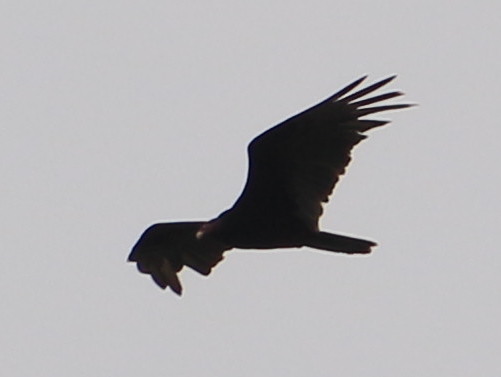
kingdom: Animalia
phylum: Chordata
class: Aves
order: Accipitriformes
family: Cathartidae
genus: Cathartes
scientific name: Cathartes aura
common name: Turkey vulture
